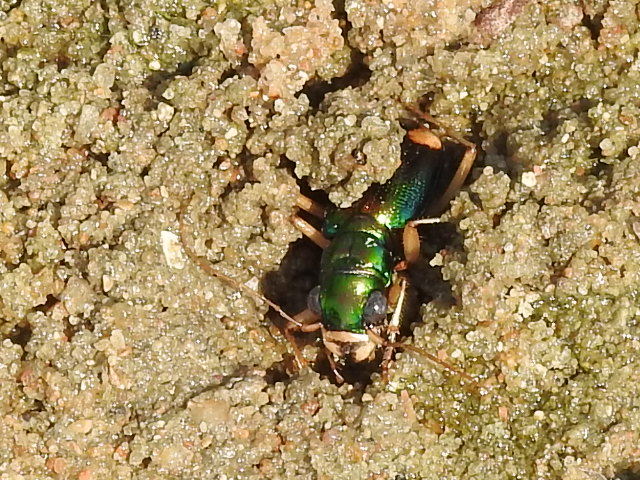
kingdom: Animalia
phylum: Arthropoda
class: Insecta
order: Coleoptera
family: Carabidae
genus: Tetracha
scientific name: Tetracha carolina
